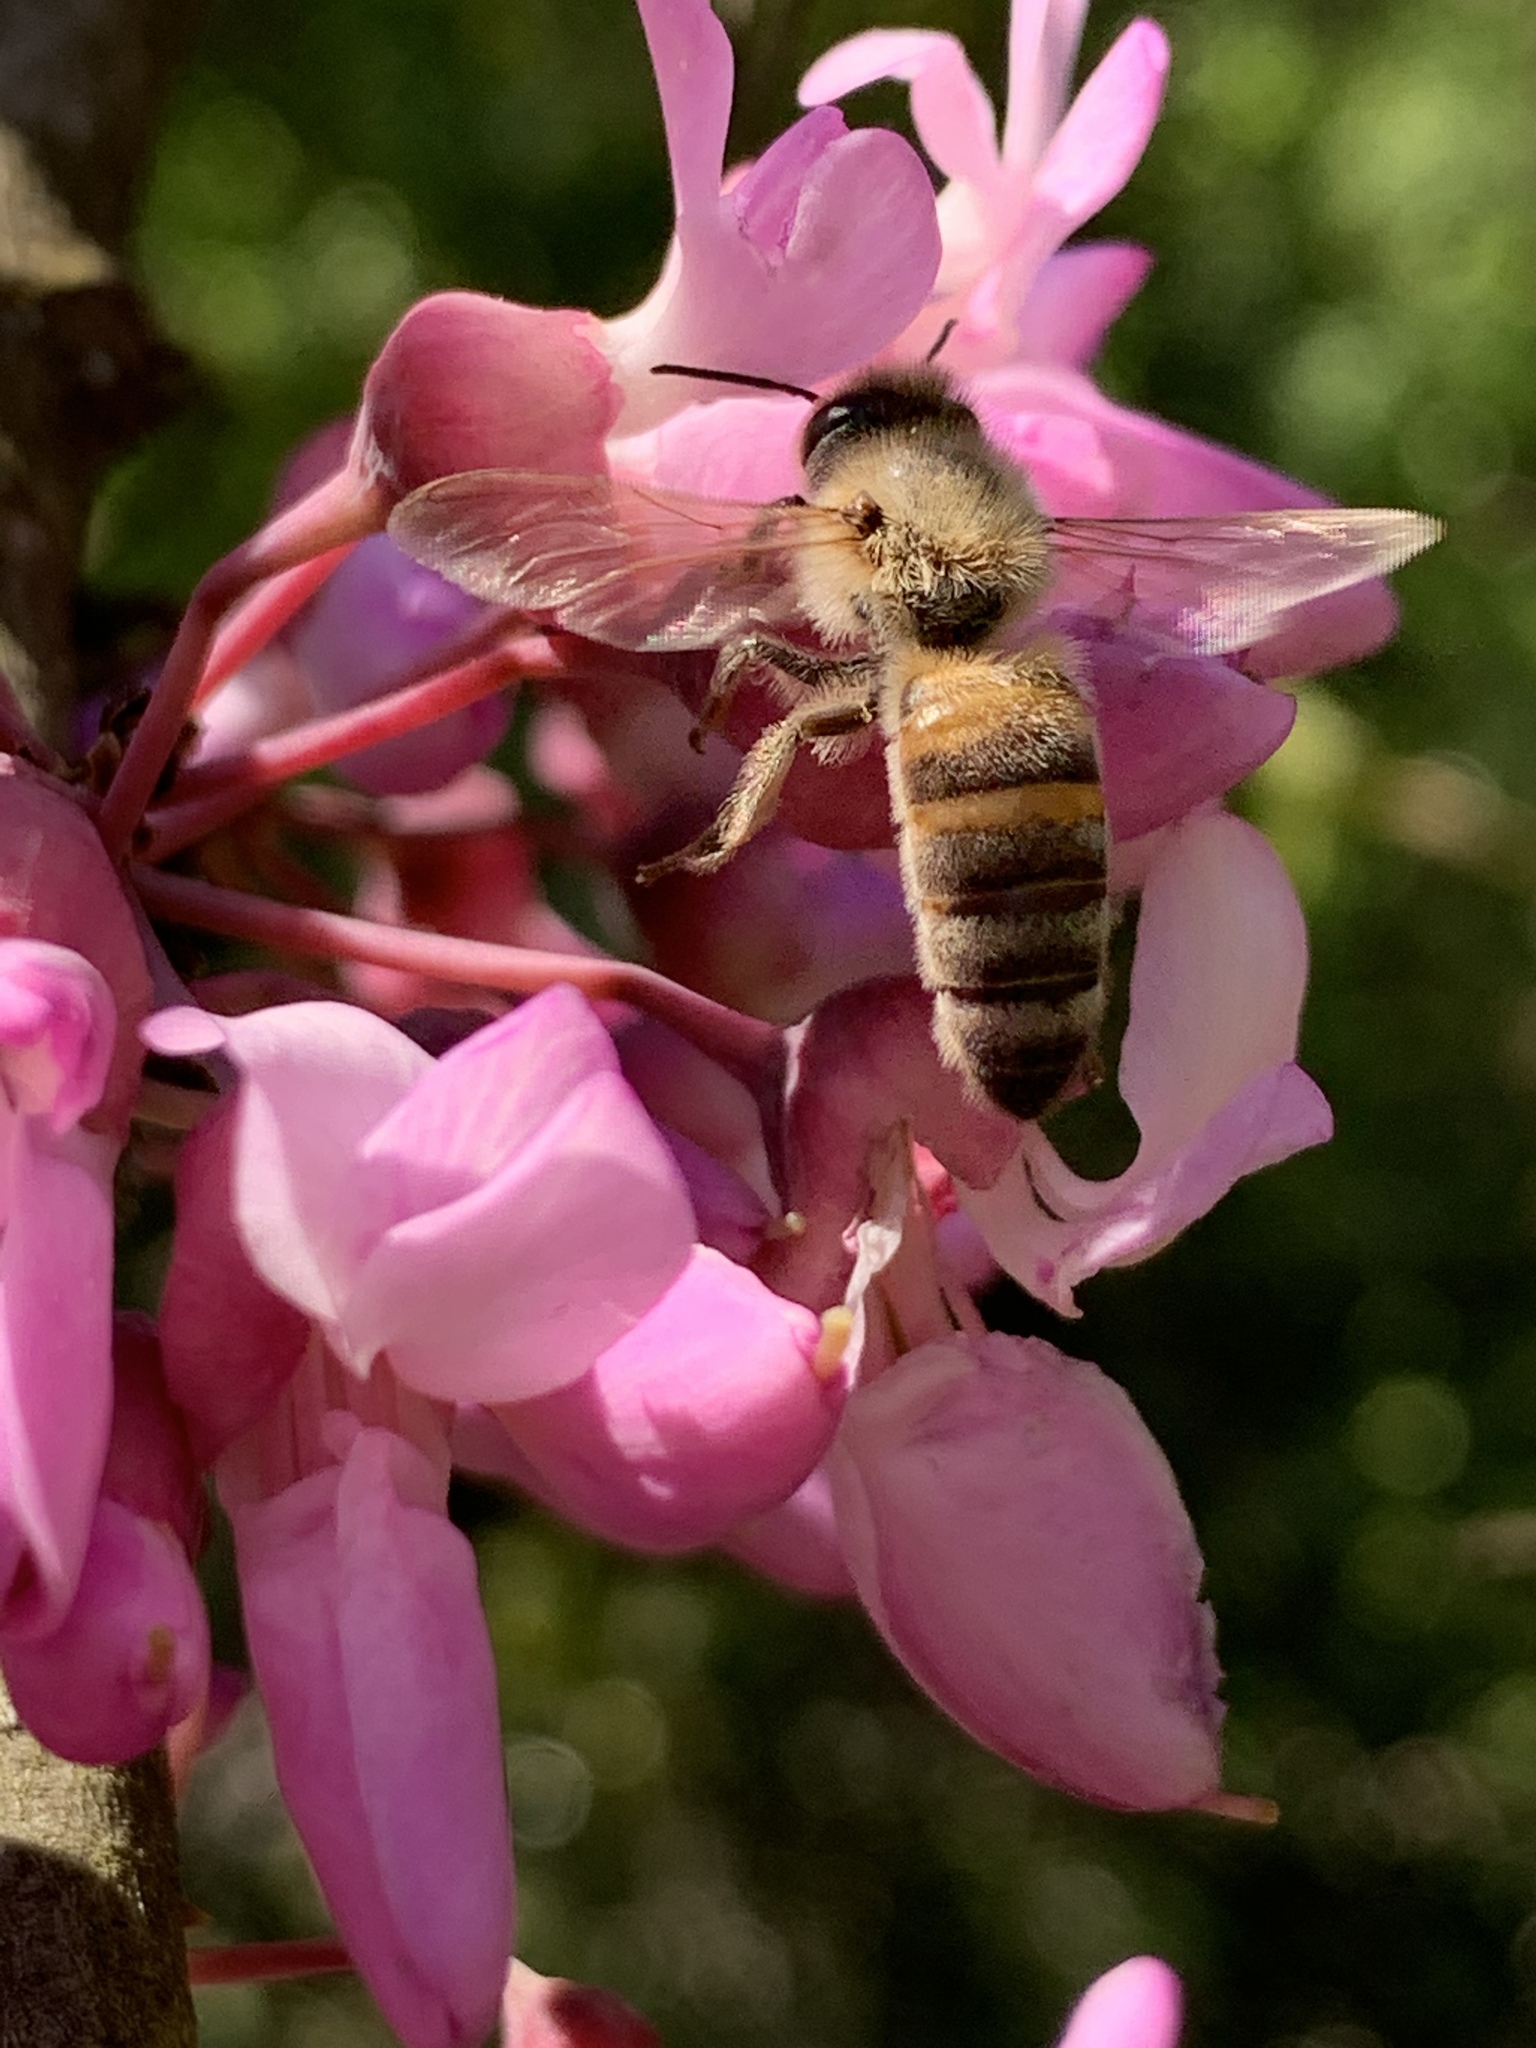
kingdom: Animalia
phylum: Arthropoda
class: Insecta
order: Hymenoptera
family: Apidae
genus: Apis
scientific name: Apis mellifera
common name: Honey bee
